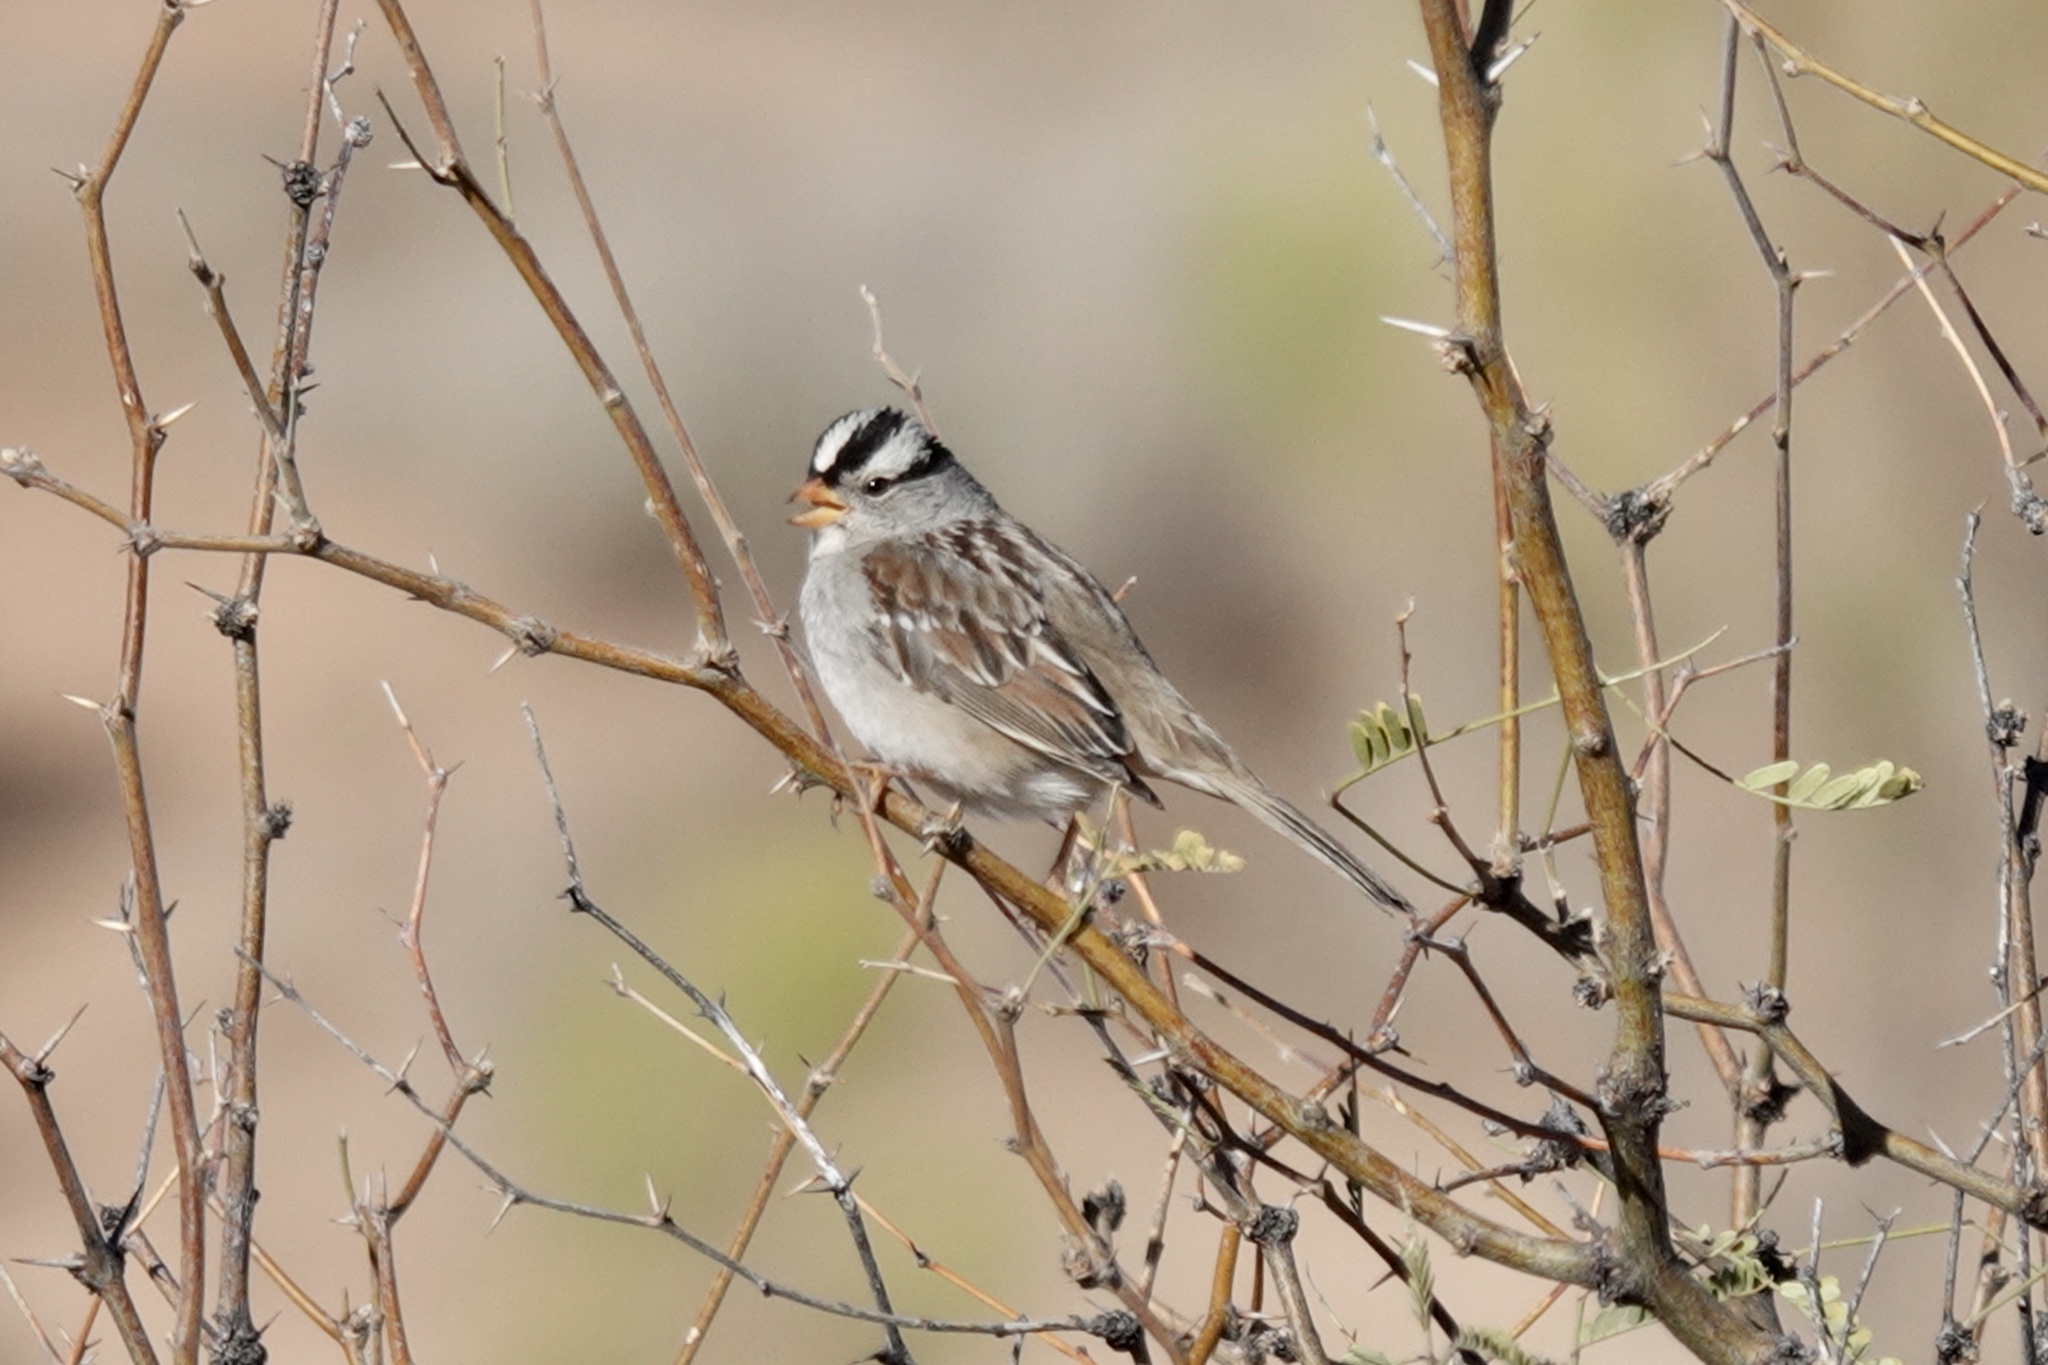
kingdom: Animalia
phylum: Chordata
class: Aves
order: Passeriformes
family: Passerellidae
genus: Zonotrichia
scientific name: Zonotrichia leucophrys
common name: White-crowned sparrow
